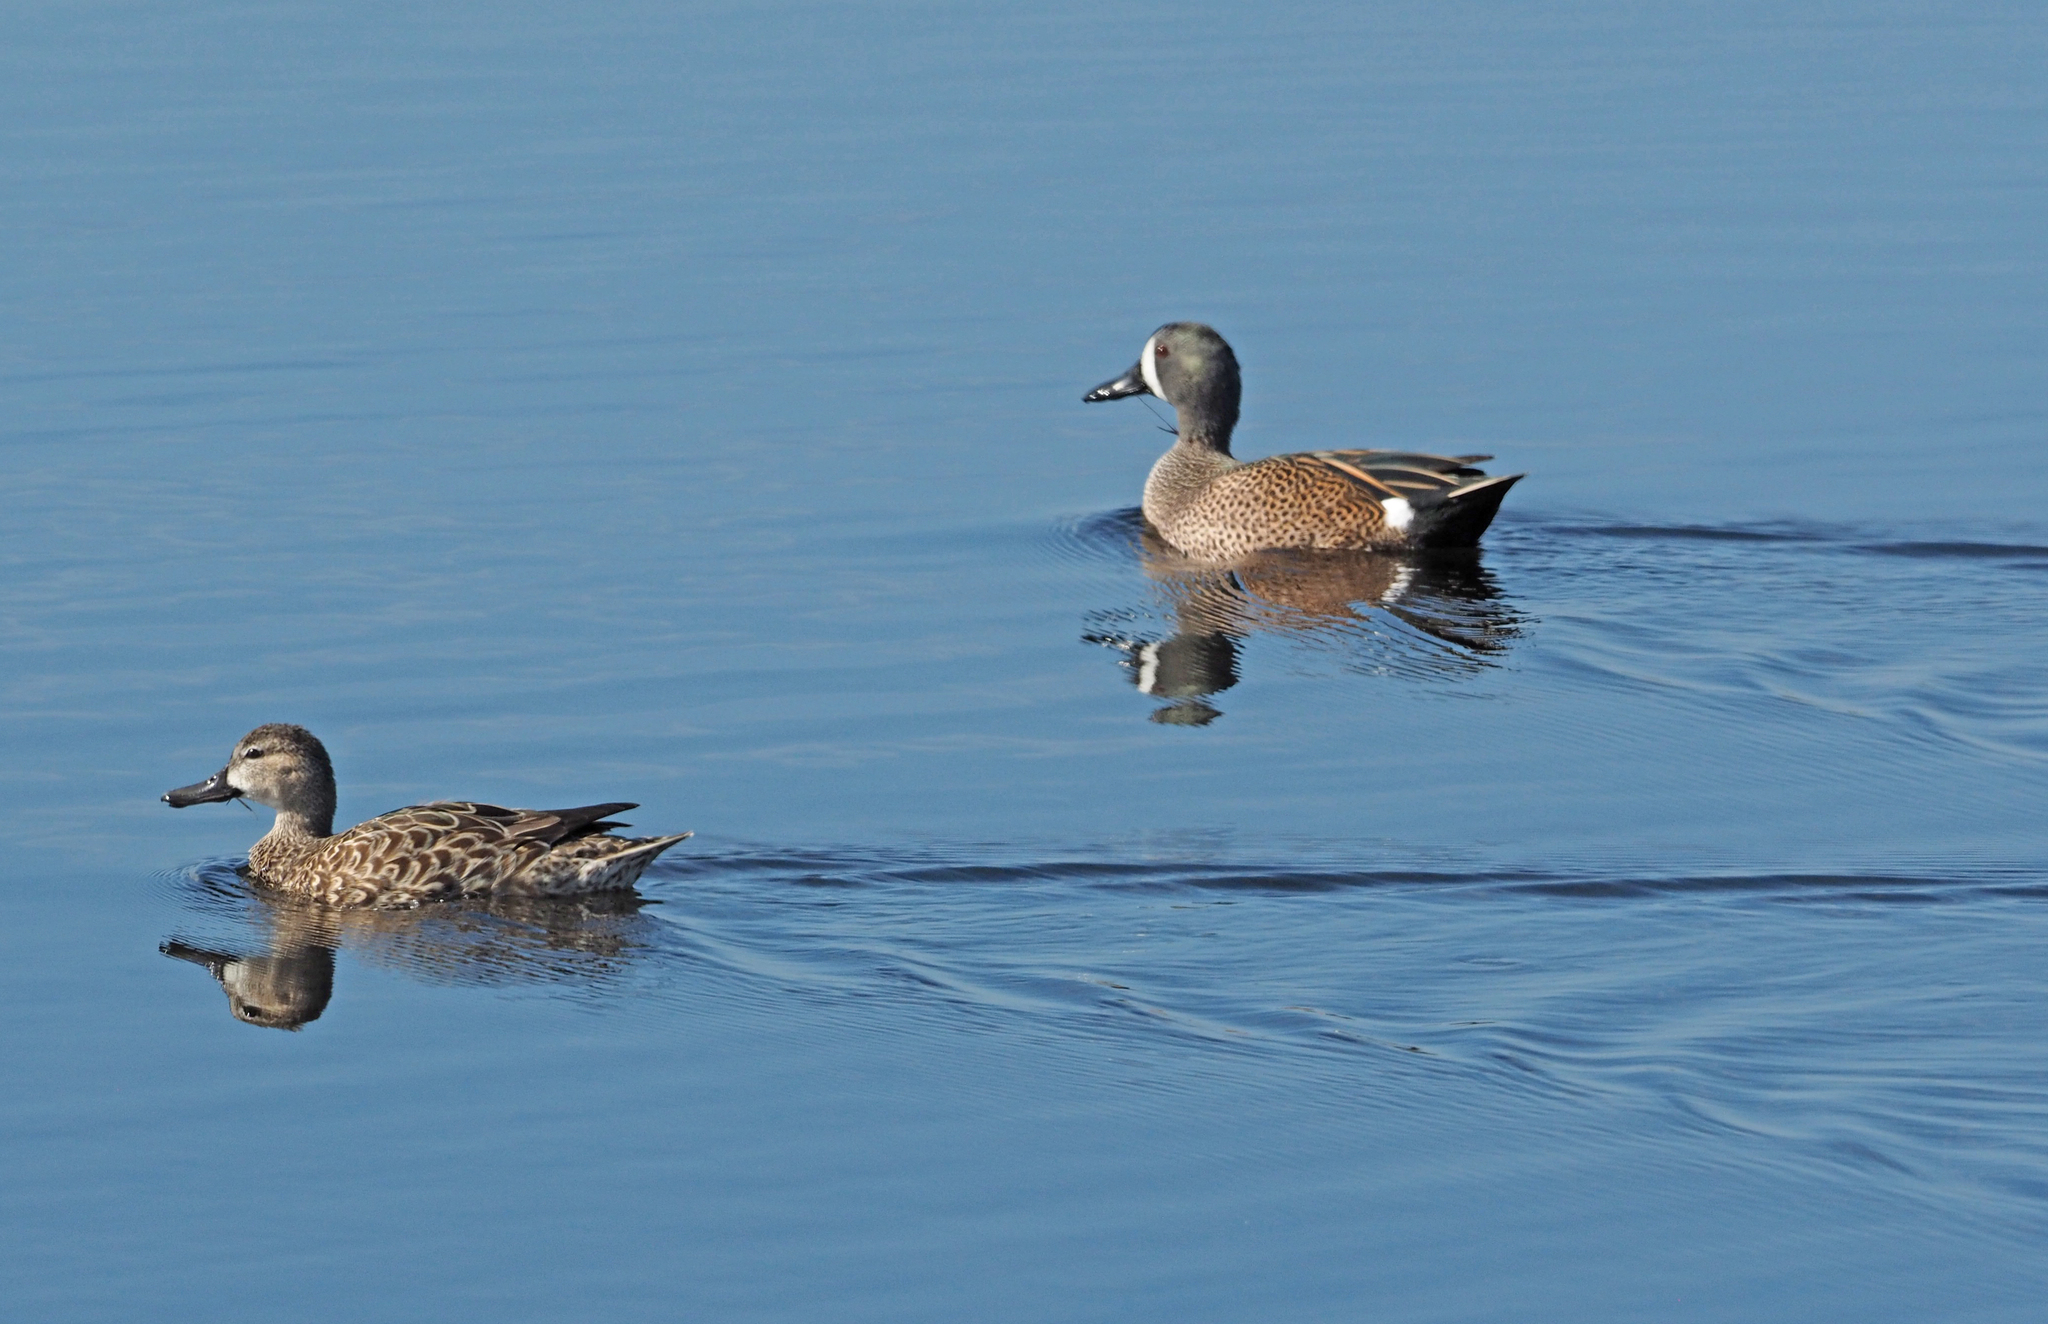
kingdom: Animalia
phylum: Chordata
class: Aves
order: Anseriformes
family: Anatidae
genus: Spatula
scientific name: Spatula discors
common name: Blue-winged teal
